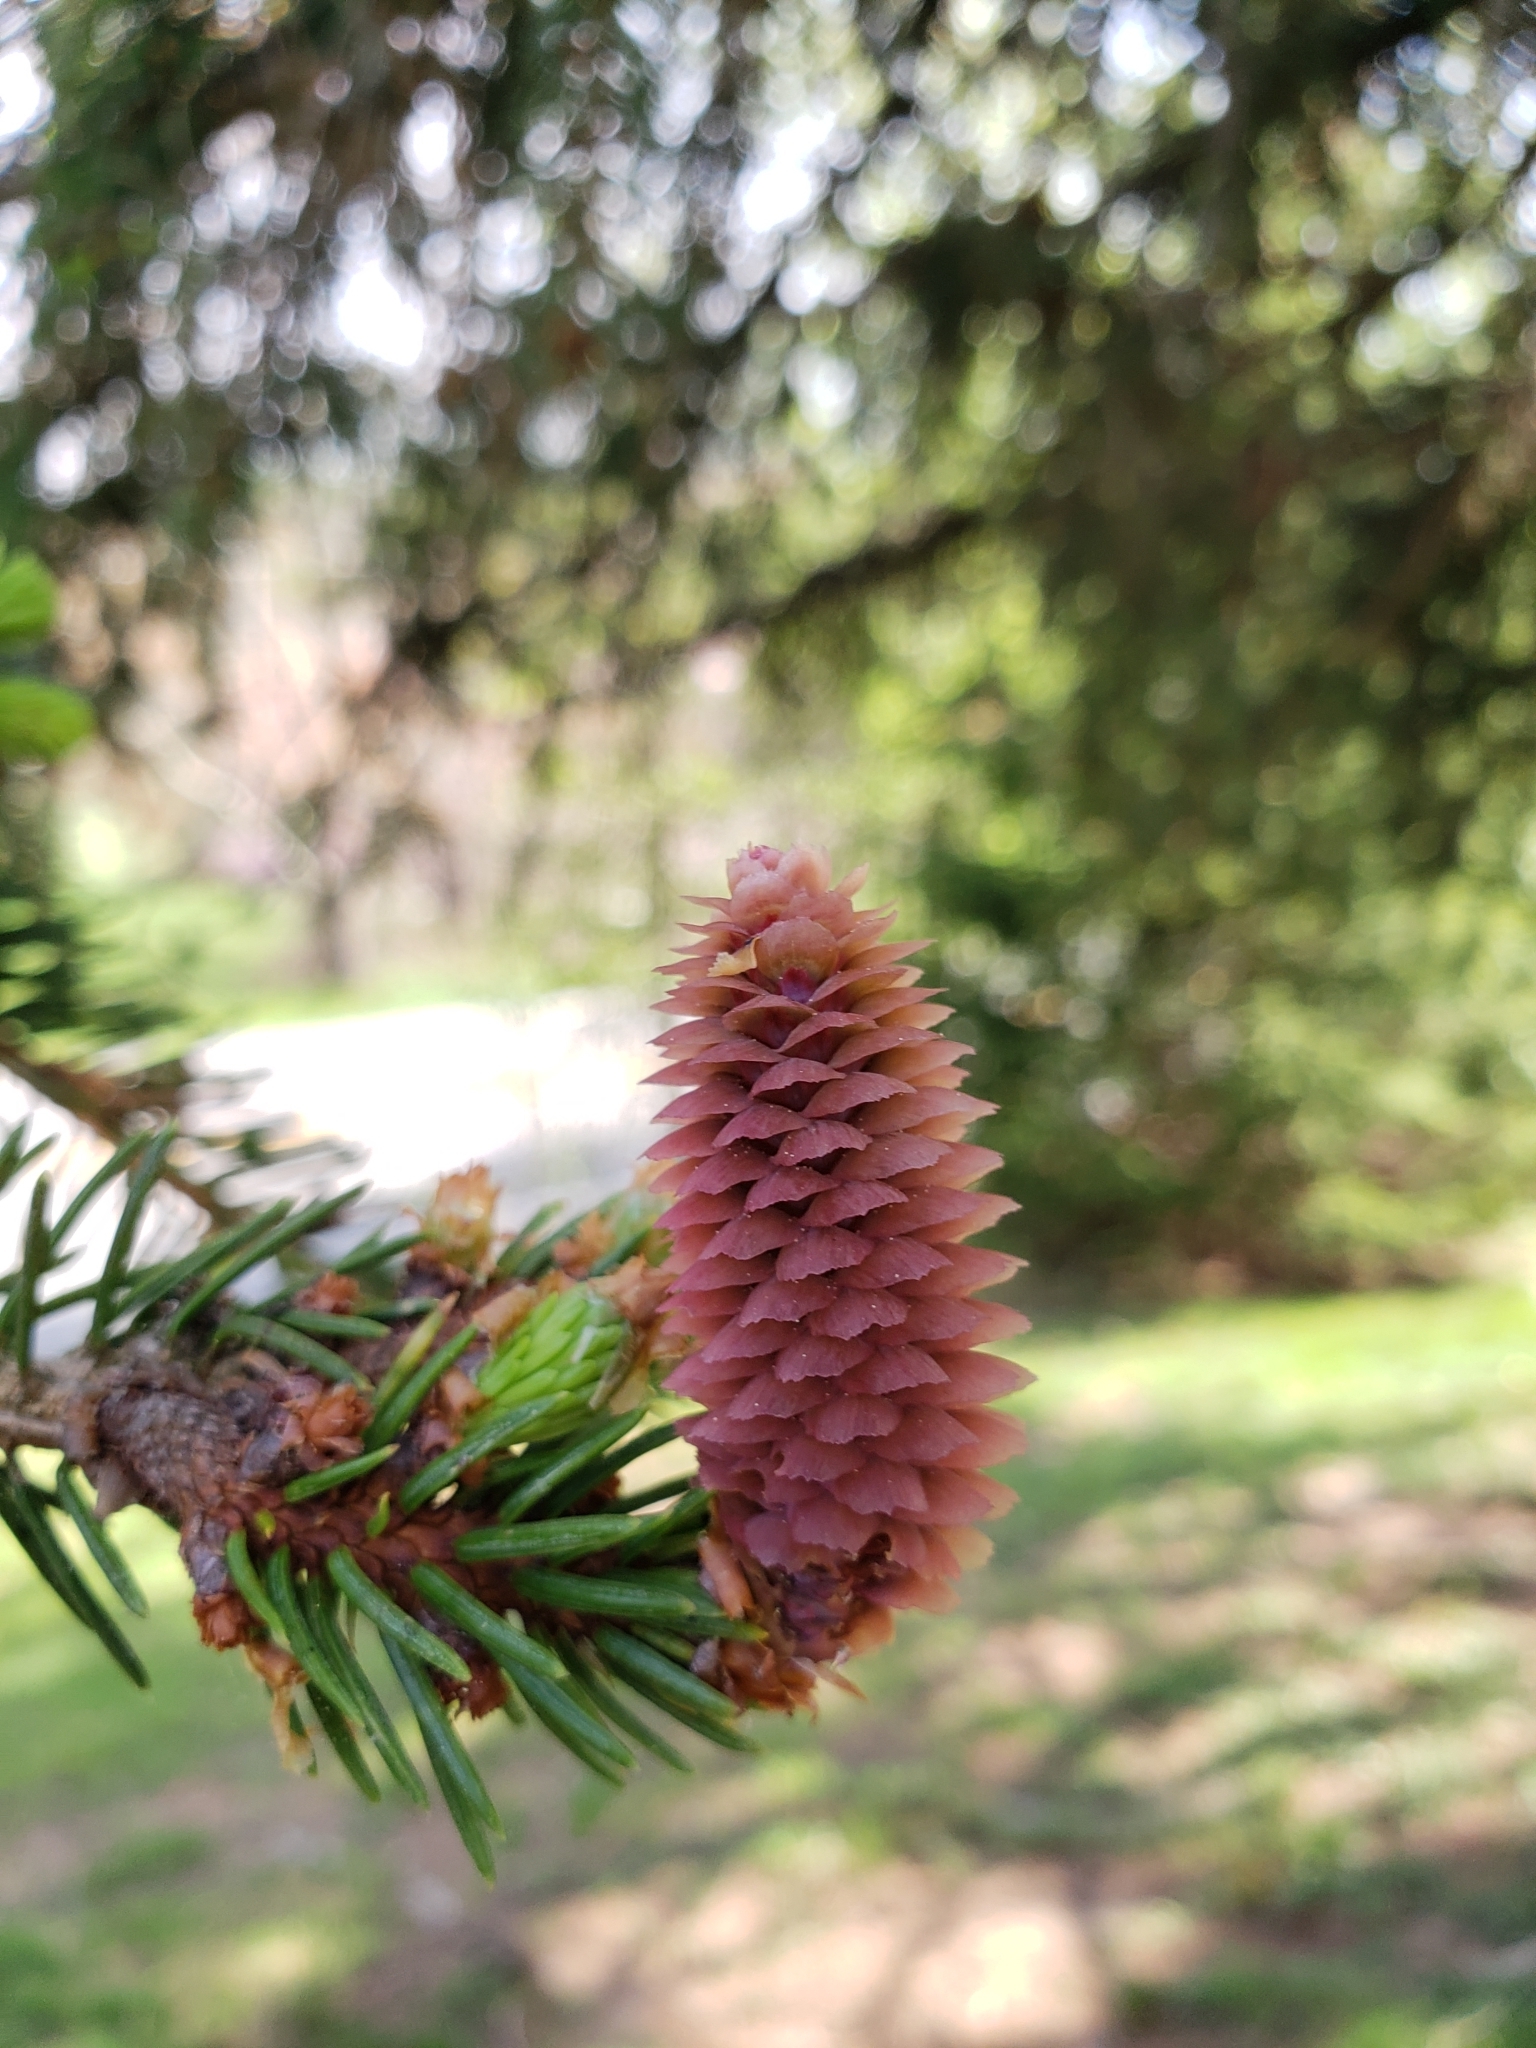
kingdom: Plantae
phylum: Tracheophyta
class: Pinopsida
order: Pinales
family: Pinaceae
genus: Picea
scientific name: Picea abies
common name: Norway spruce
